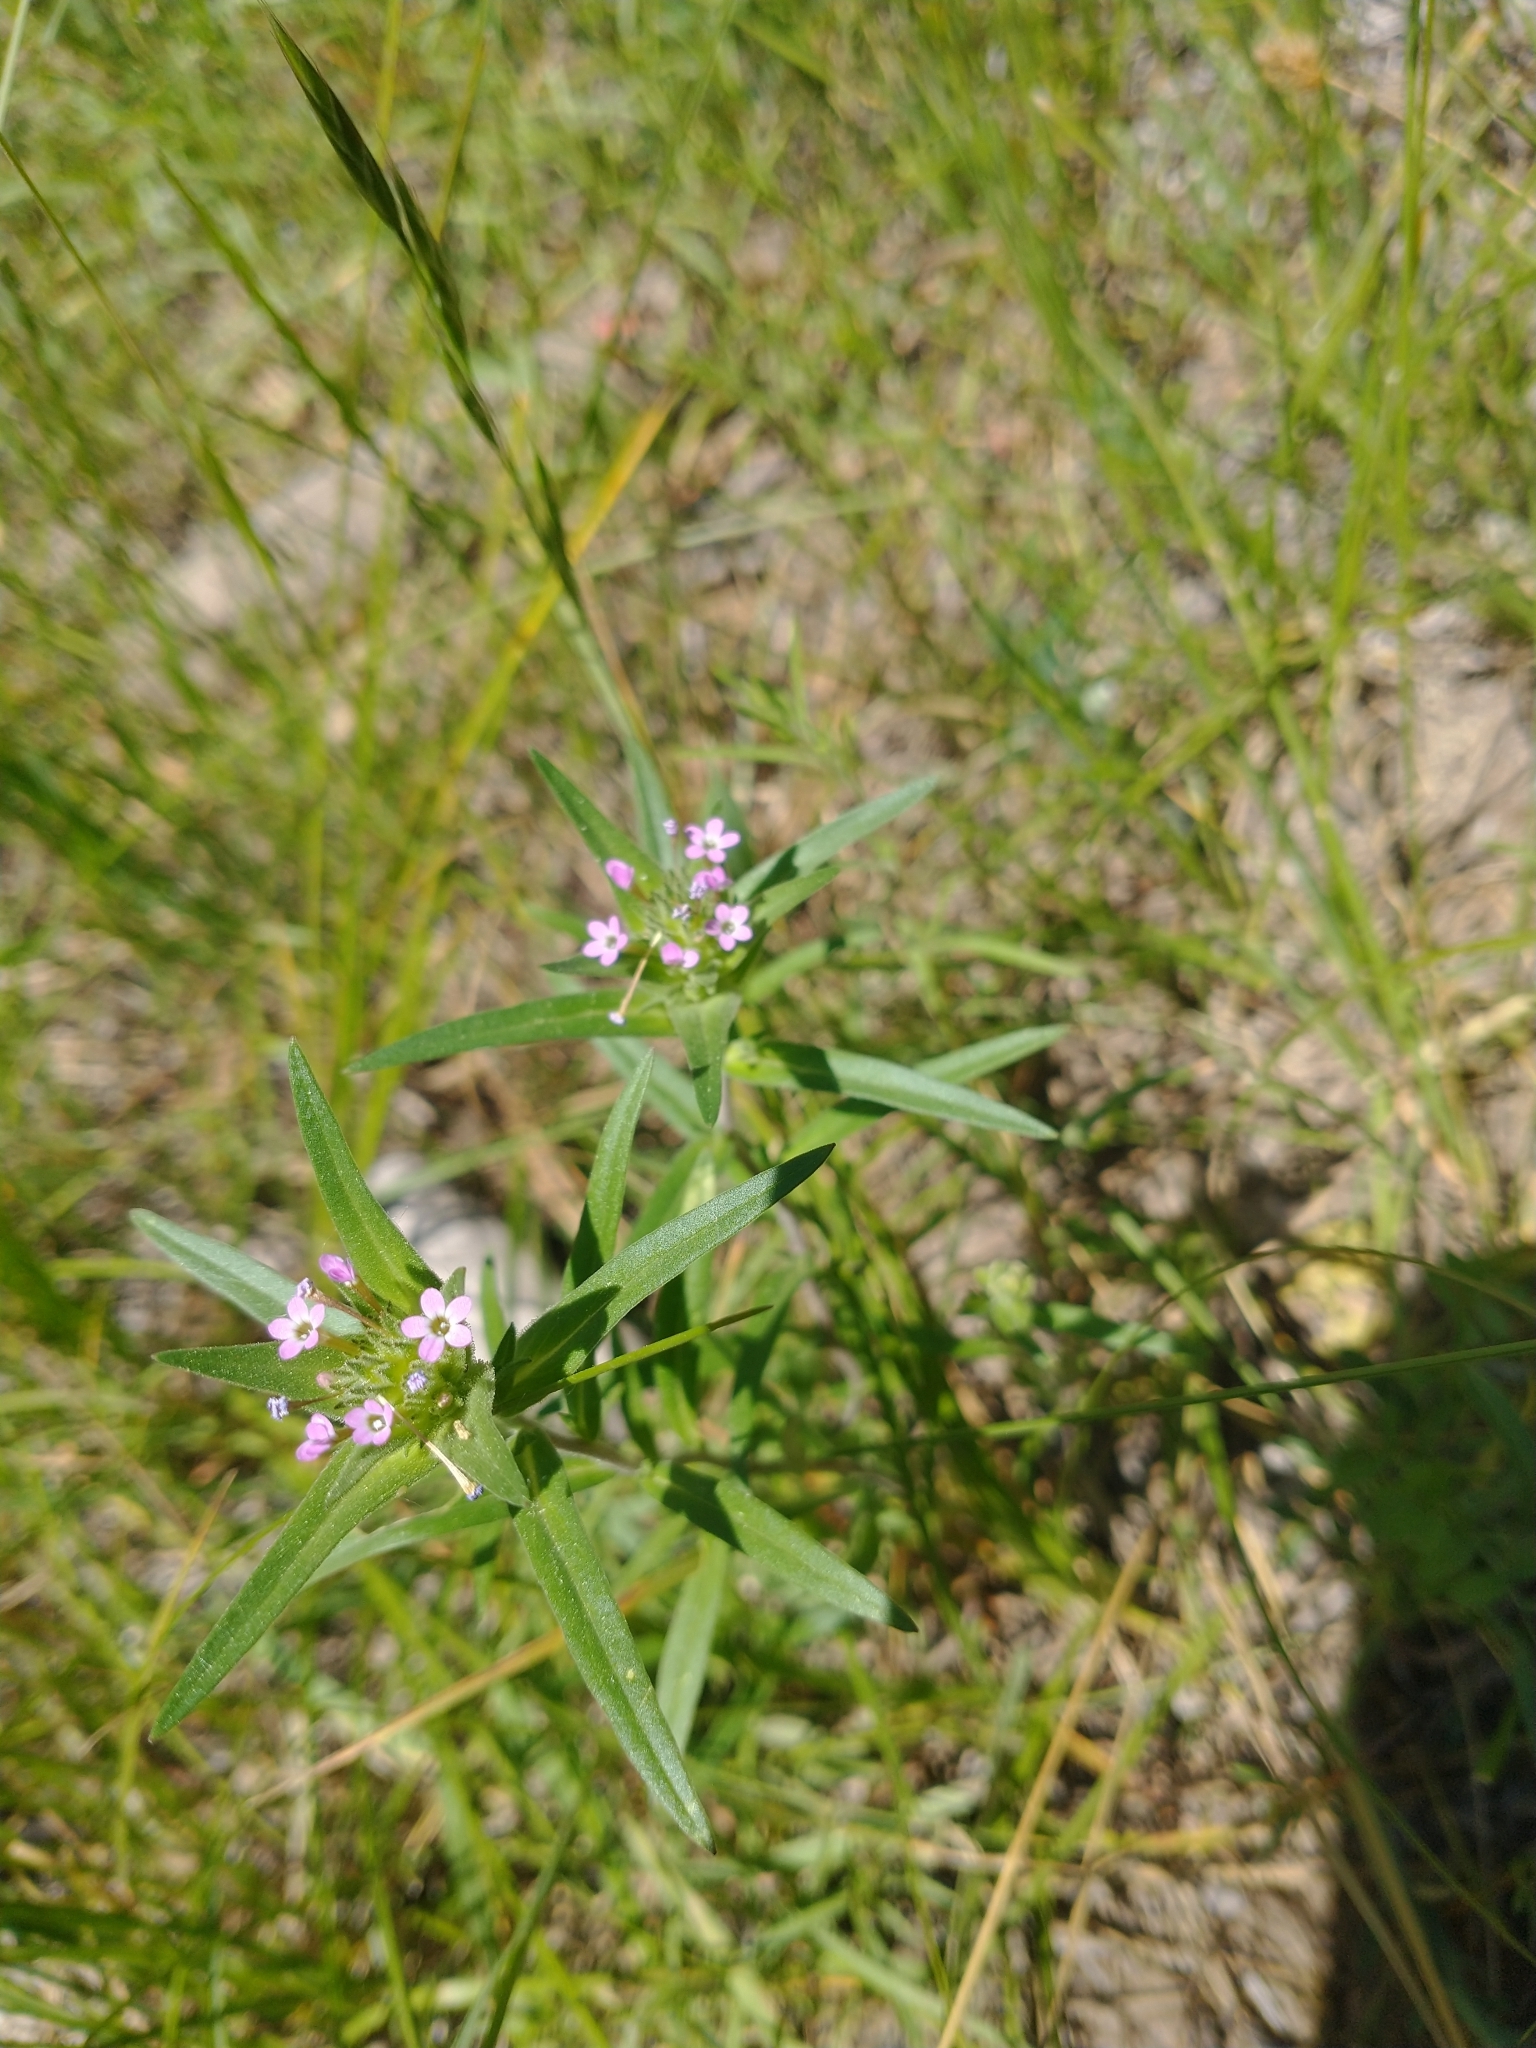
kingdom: Plantae
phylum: Tracheophyta
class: Magnoliopsida
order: Ericales
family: Polemoniaceae
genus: Collomia
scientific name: Collomia linearis
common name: Tiny trumpet
